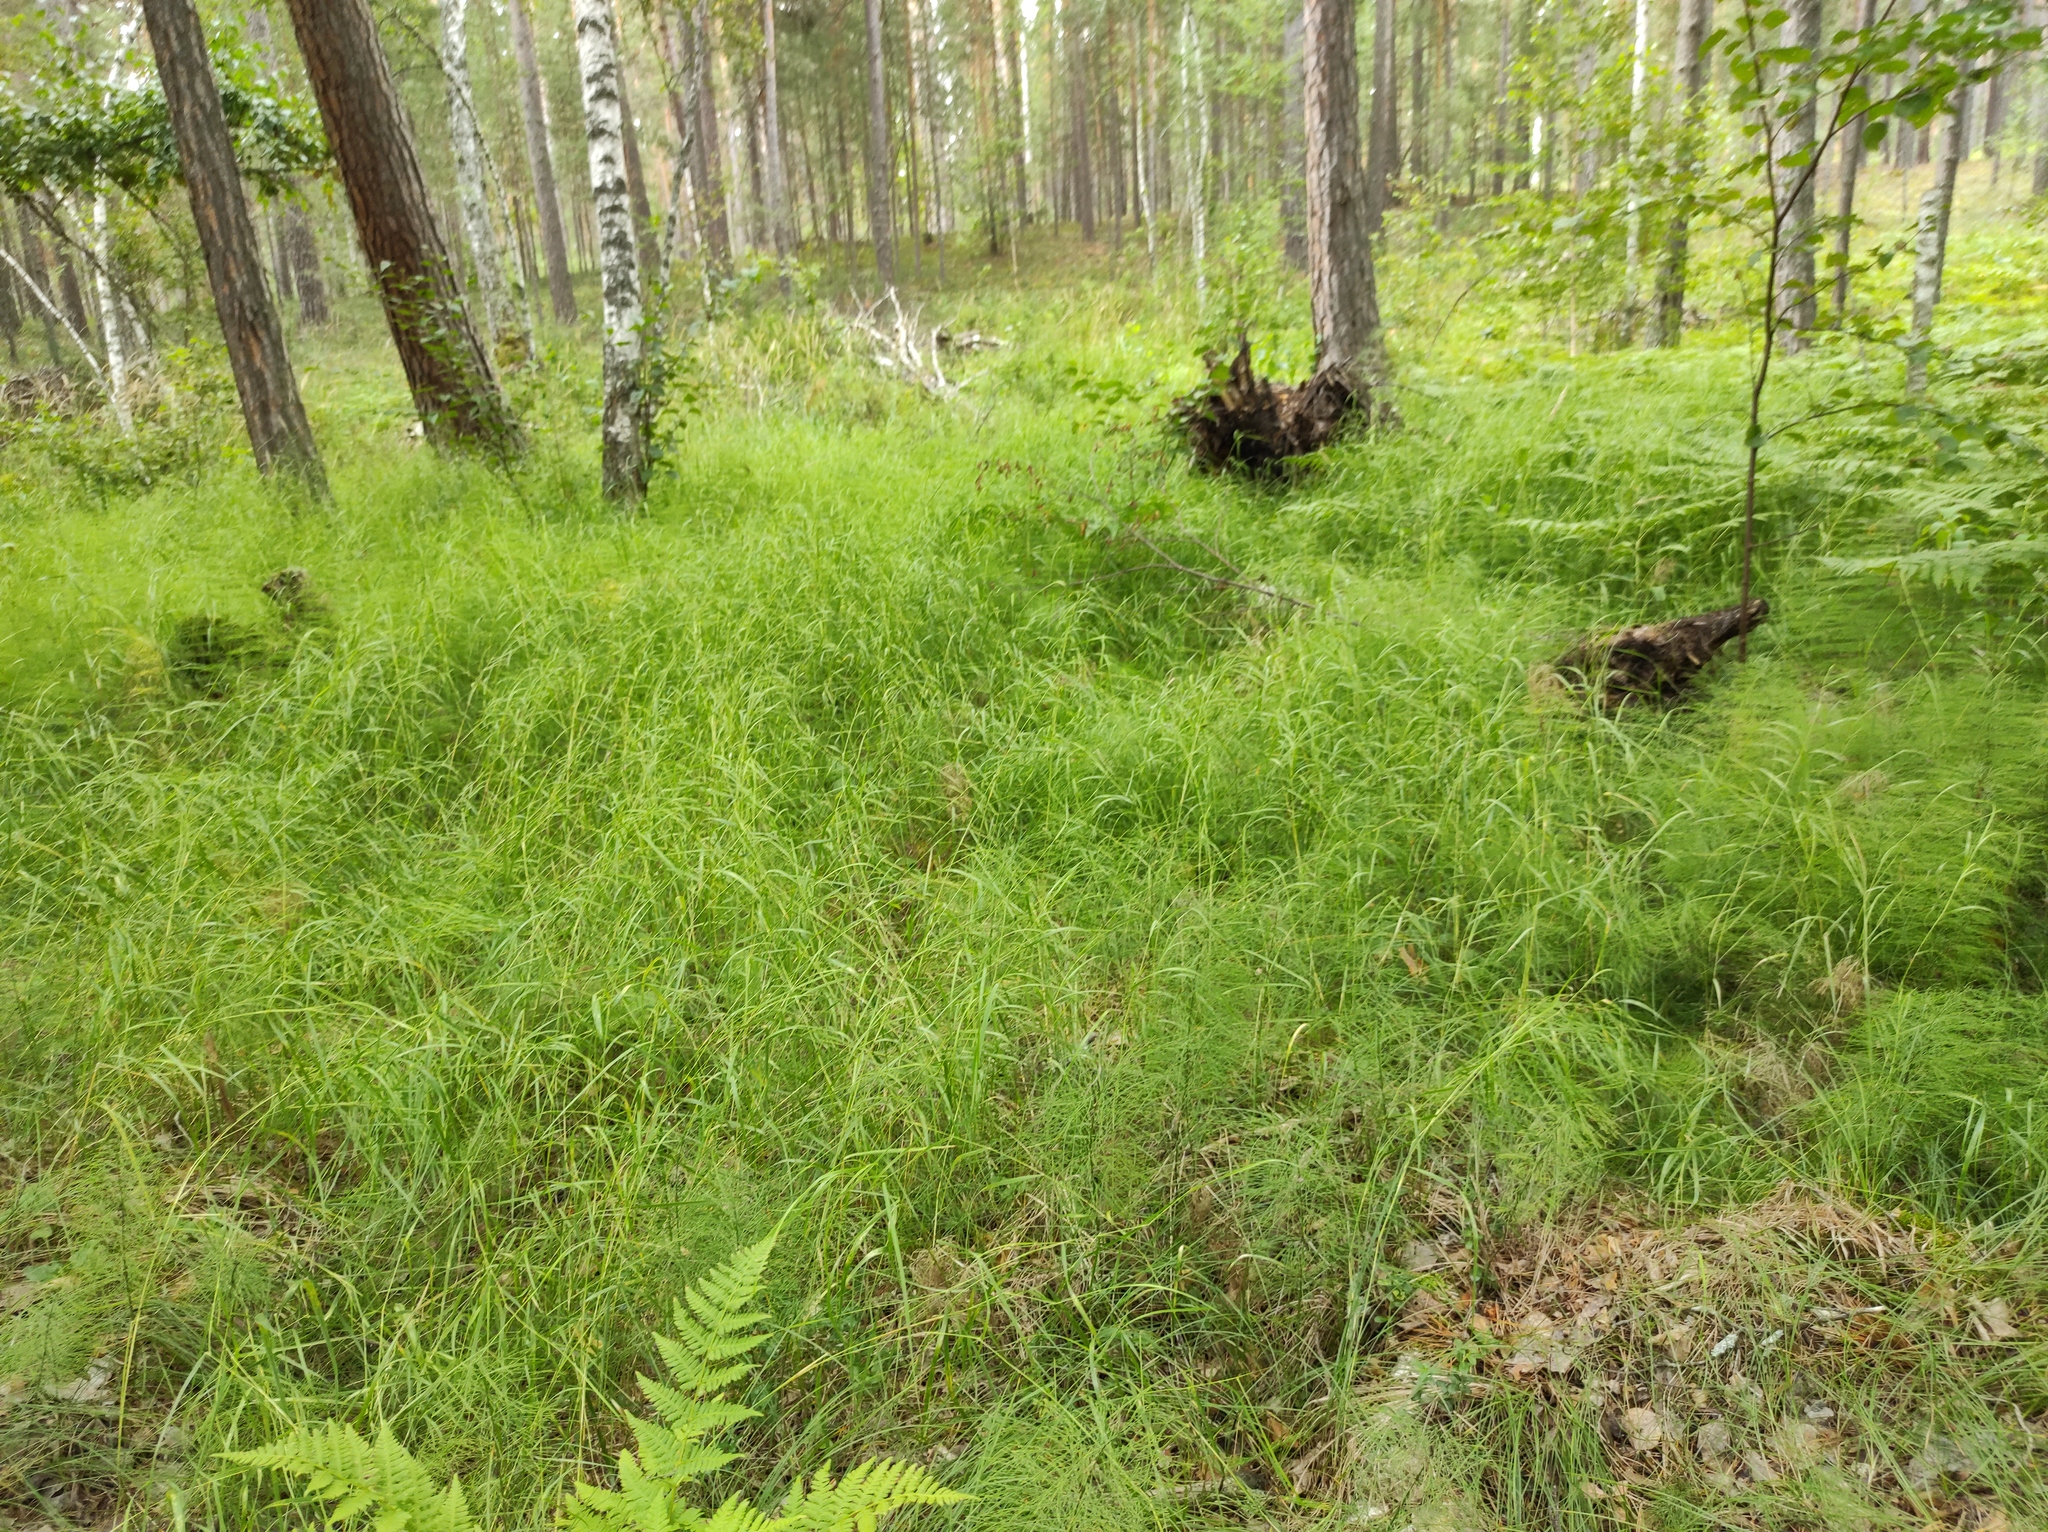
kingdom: Plantae
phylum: Tracheophyta
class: Polypodiopsida
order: Polypodiales
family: Dryopteridaceae
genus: Dryopteris
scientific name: Dryopteris carthusiana
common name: Narrow buckler-fern
